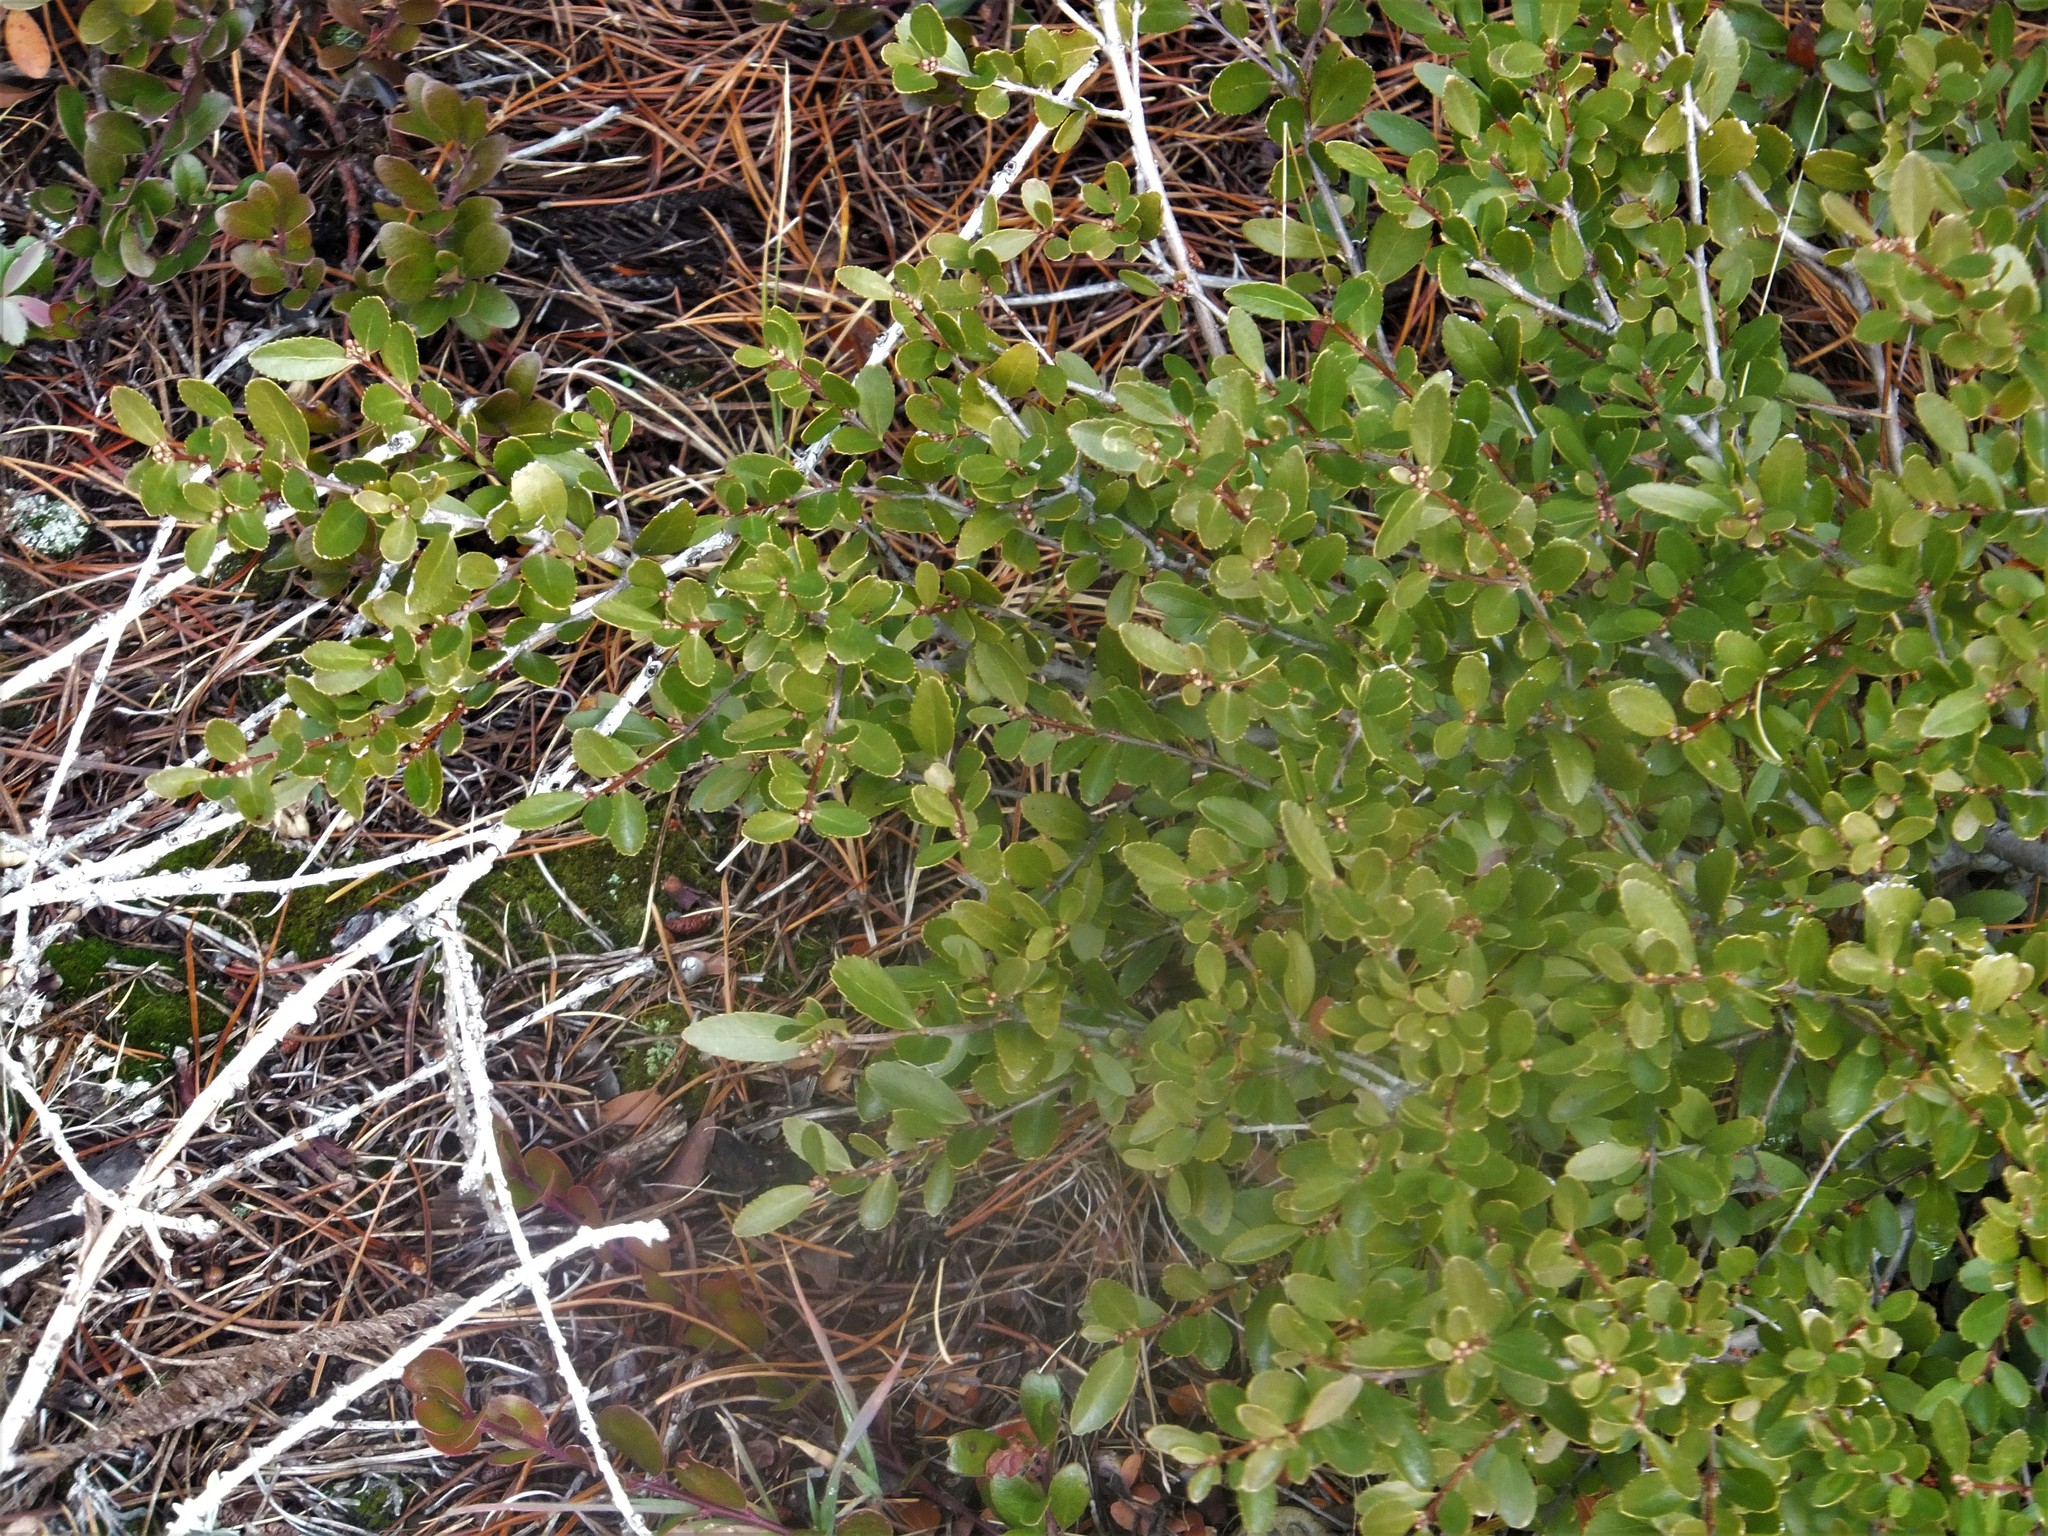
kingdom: Plantae
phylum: Tracheophyta
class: Magnoliopsida
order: Celastrales
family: Celastraceae
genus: Paxistima
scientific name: Paxistima myrsinites
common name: Mountain-lover
